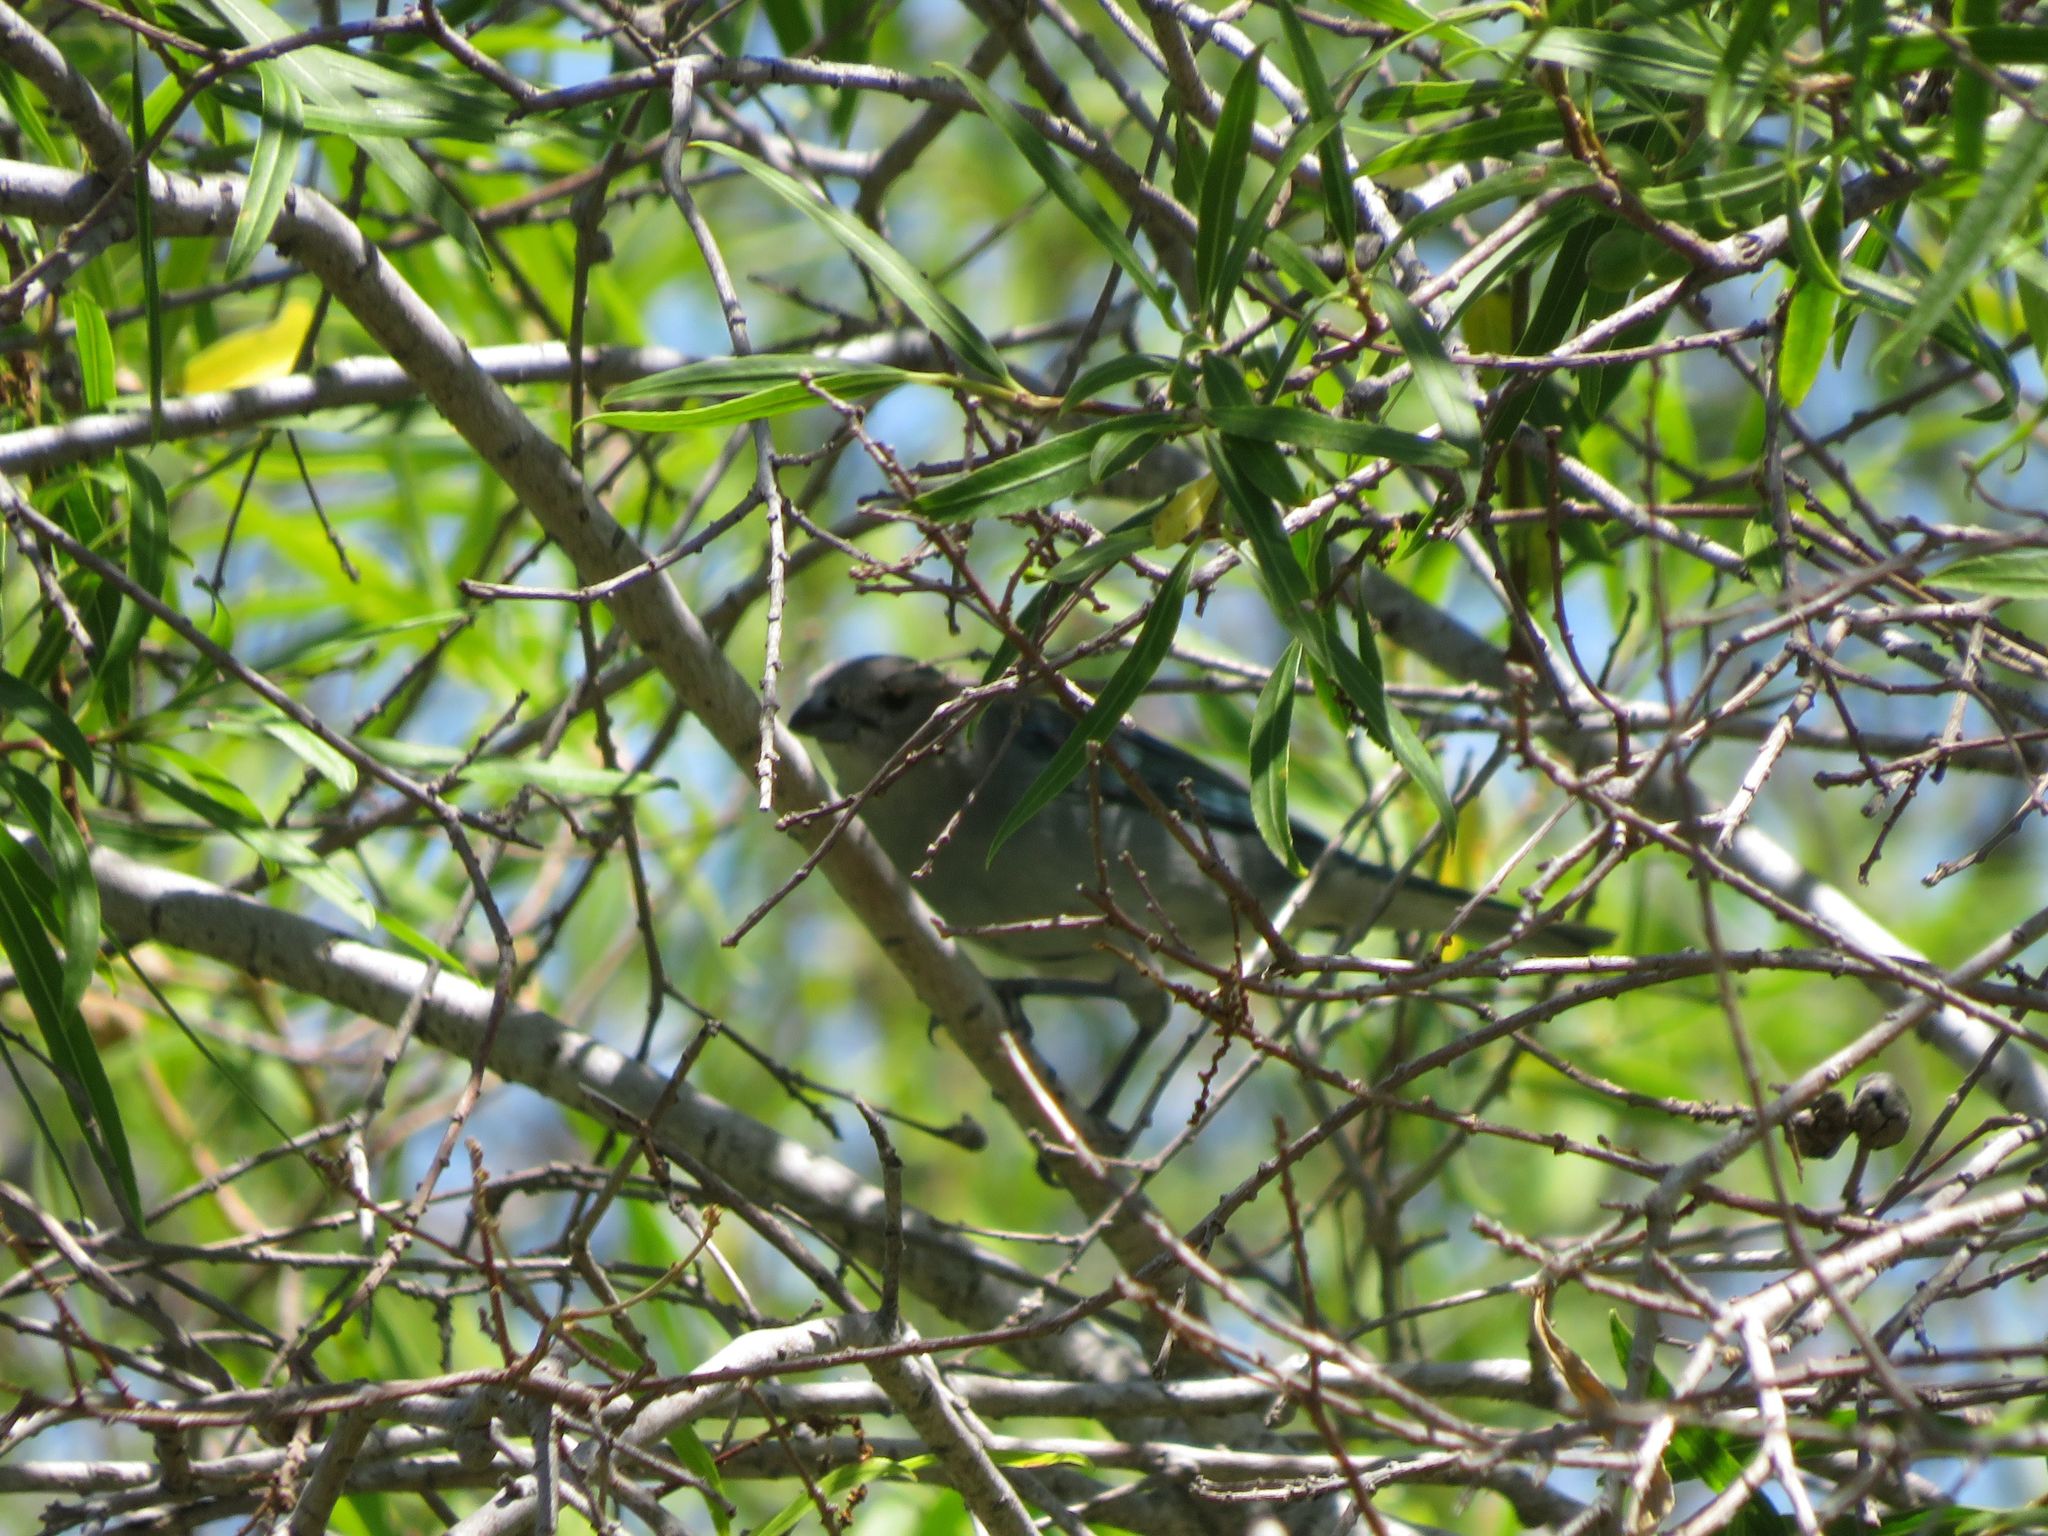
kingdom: Animalia
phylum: Chordata
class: Aves
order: Passeriformes
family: Thraupidae
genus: Thraupis
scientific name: Thraupis sayaca
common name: Sayaca tanager
